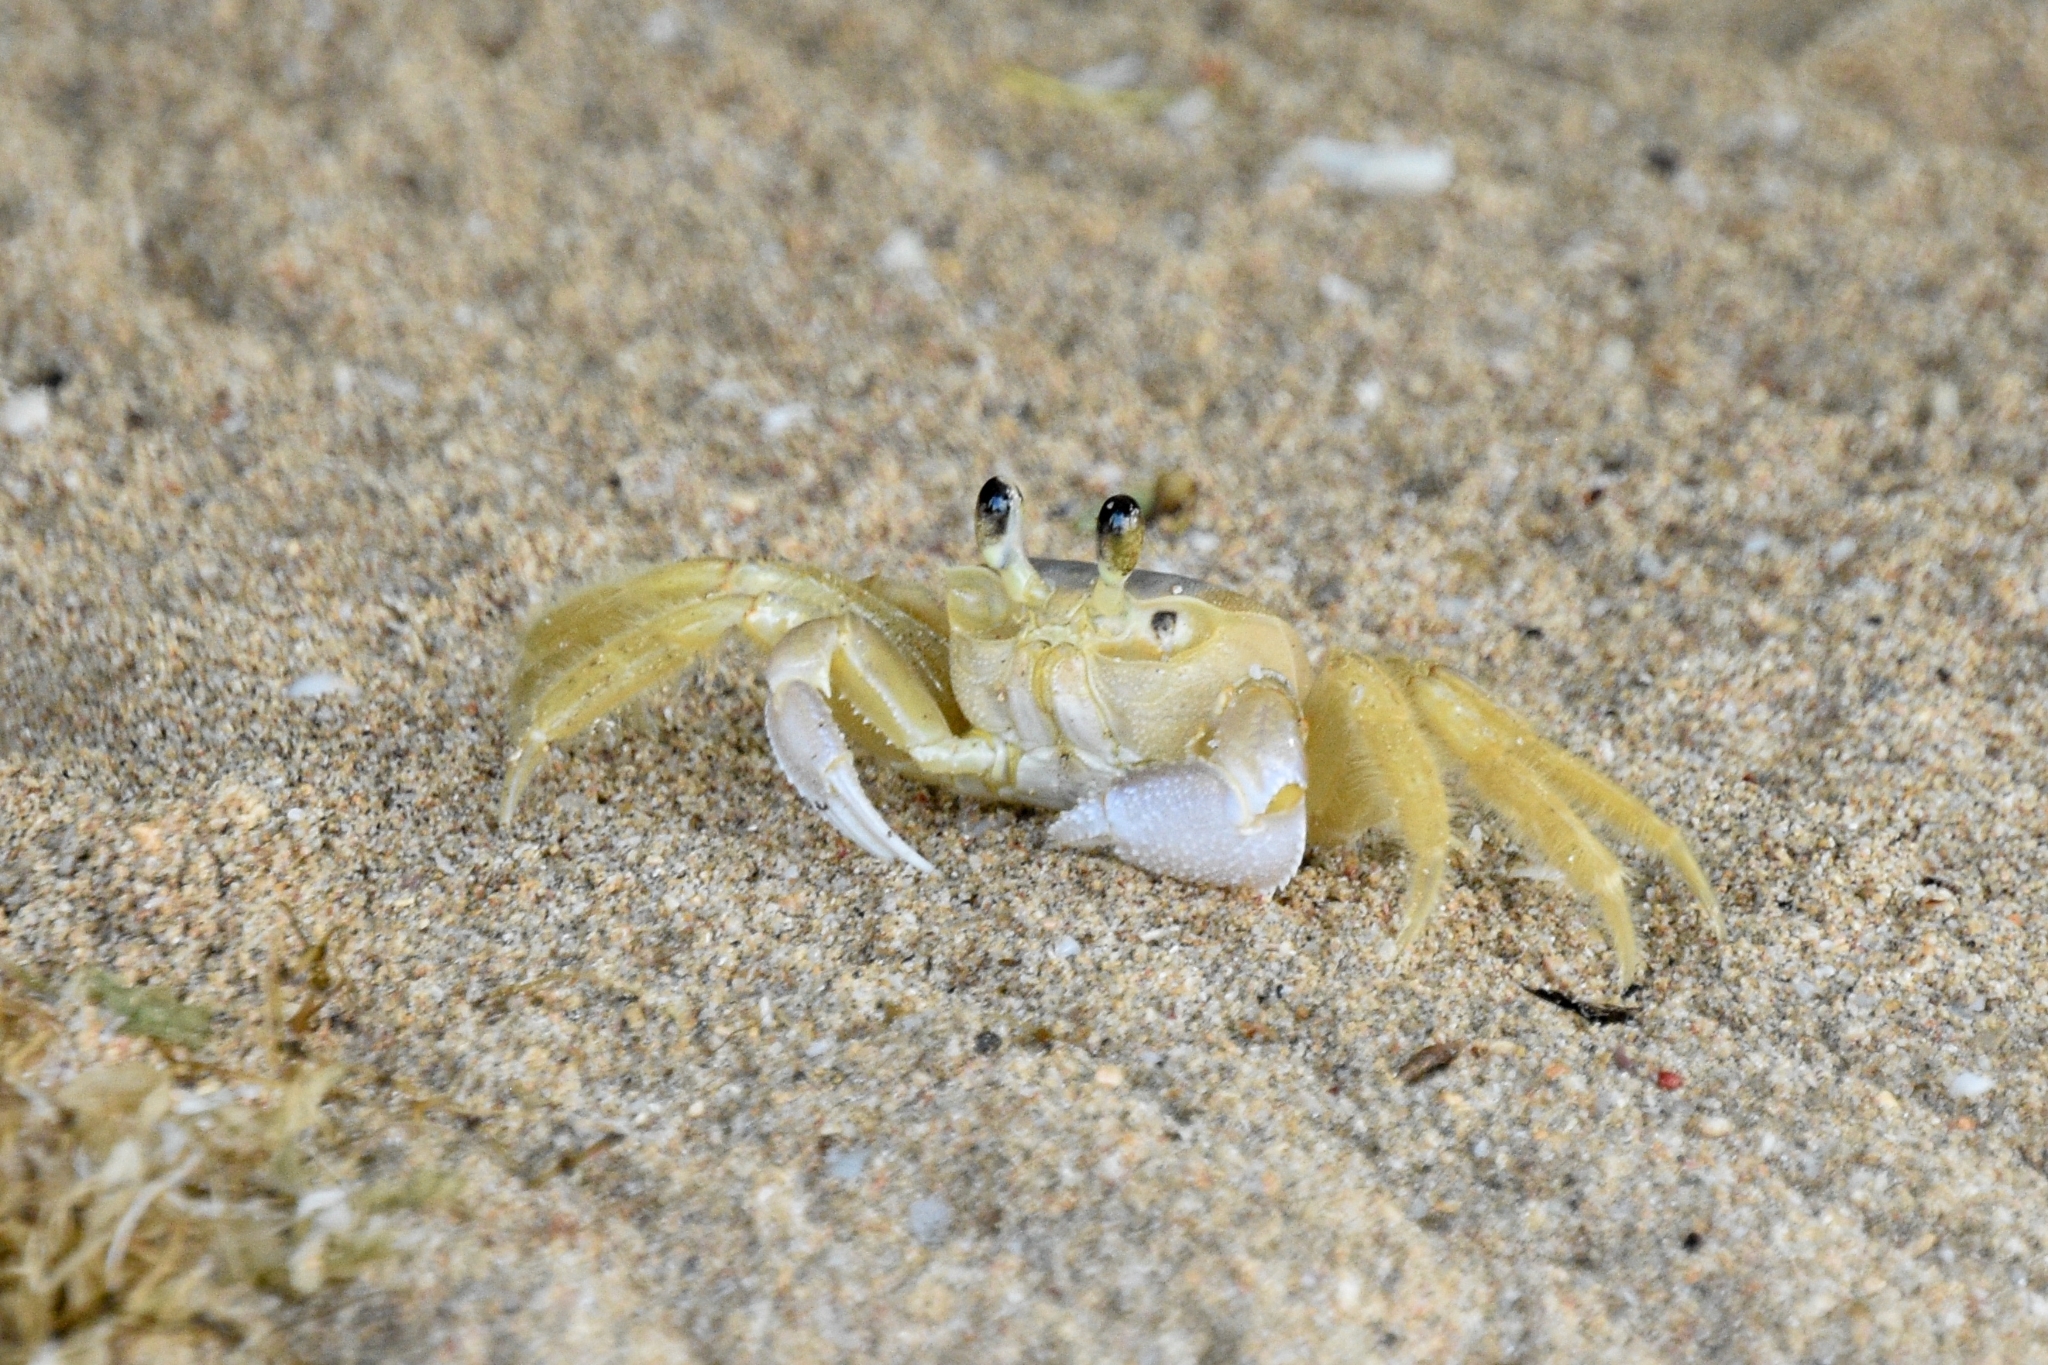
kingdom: Animalia
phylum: Arthropoda
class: Malacostraca
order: Decapoda
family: Ocypodidae
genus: Ocypode
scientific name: Ocypode quadrata
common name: Ghost crab
